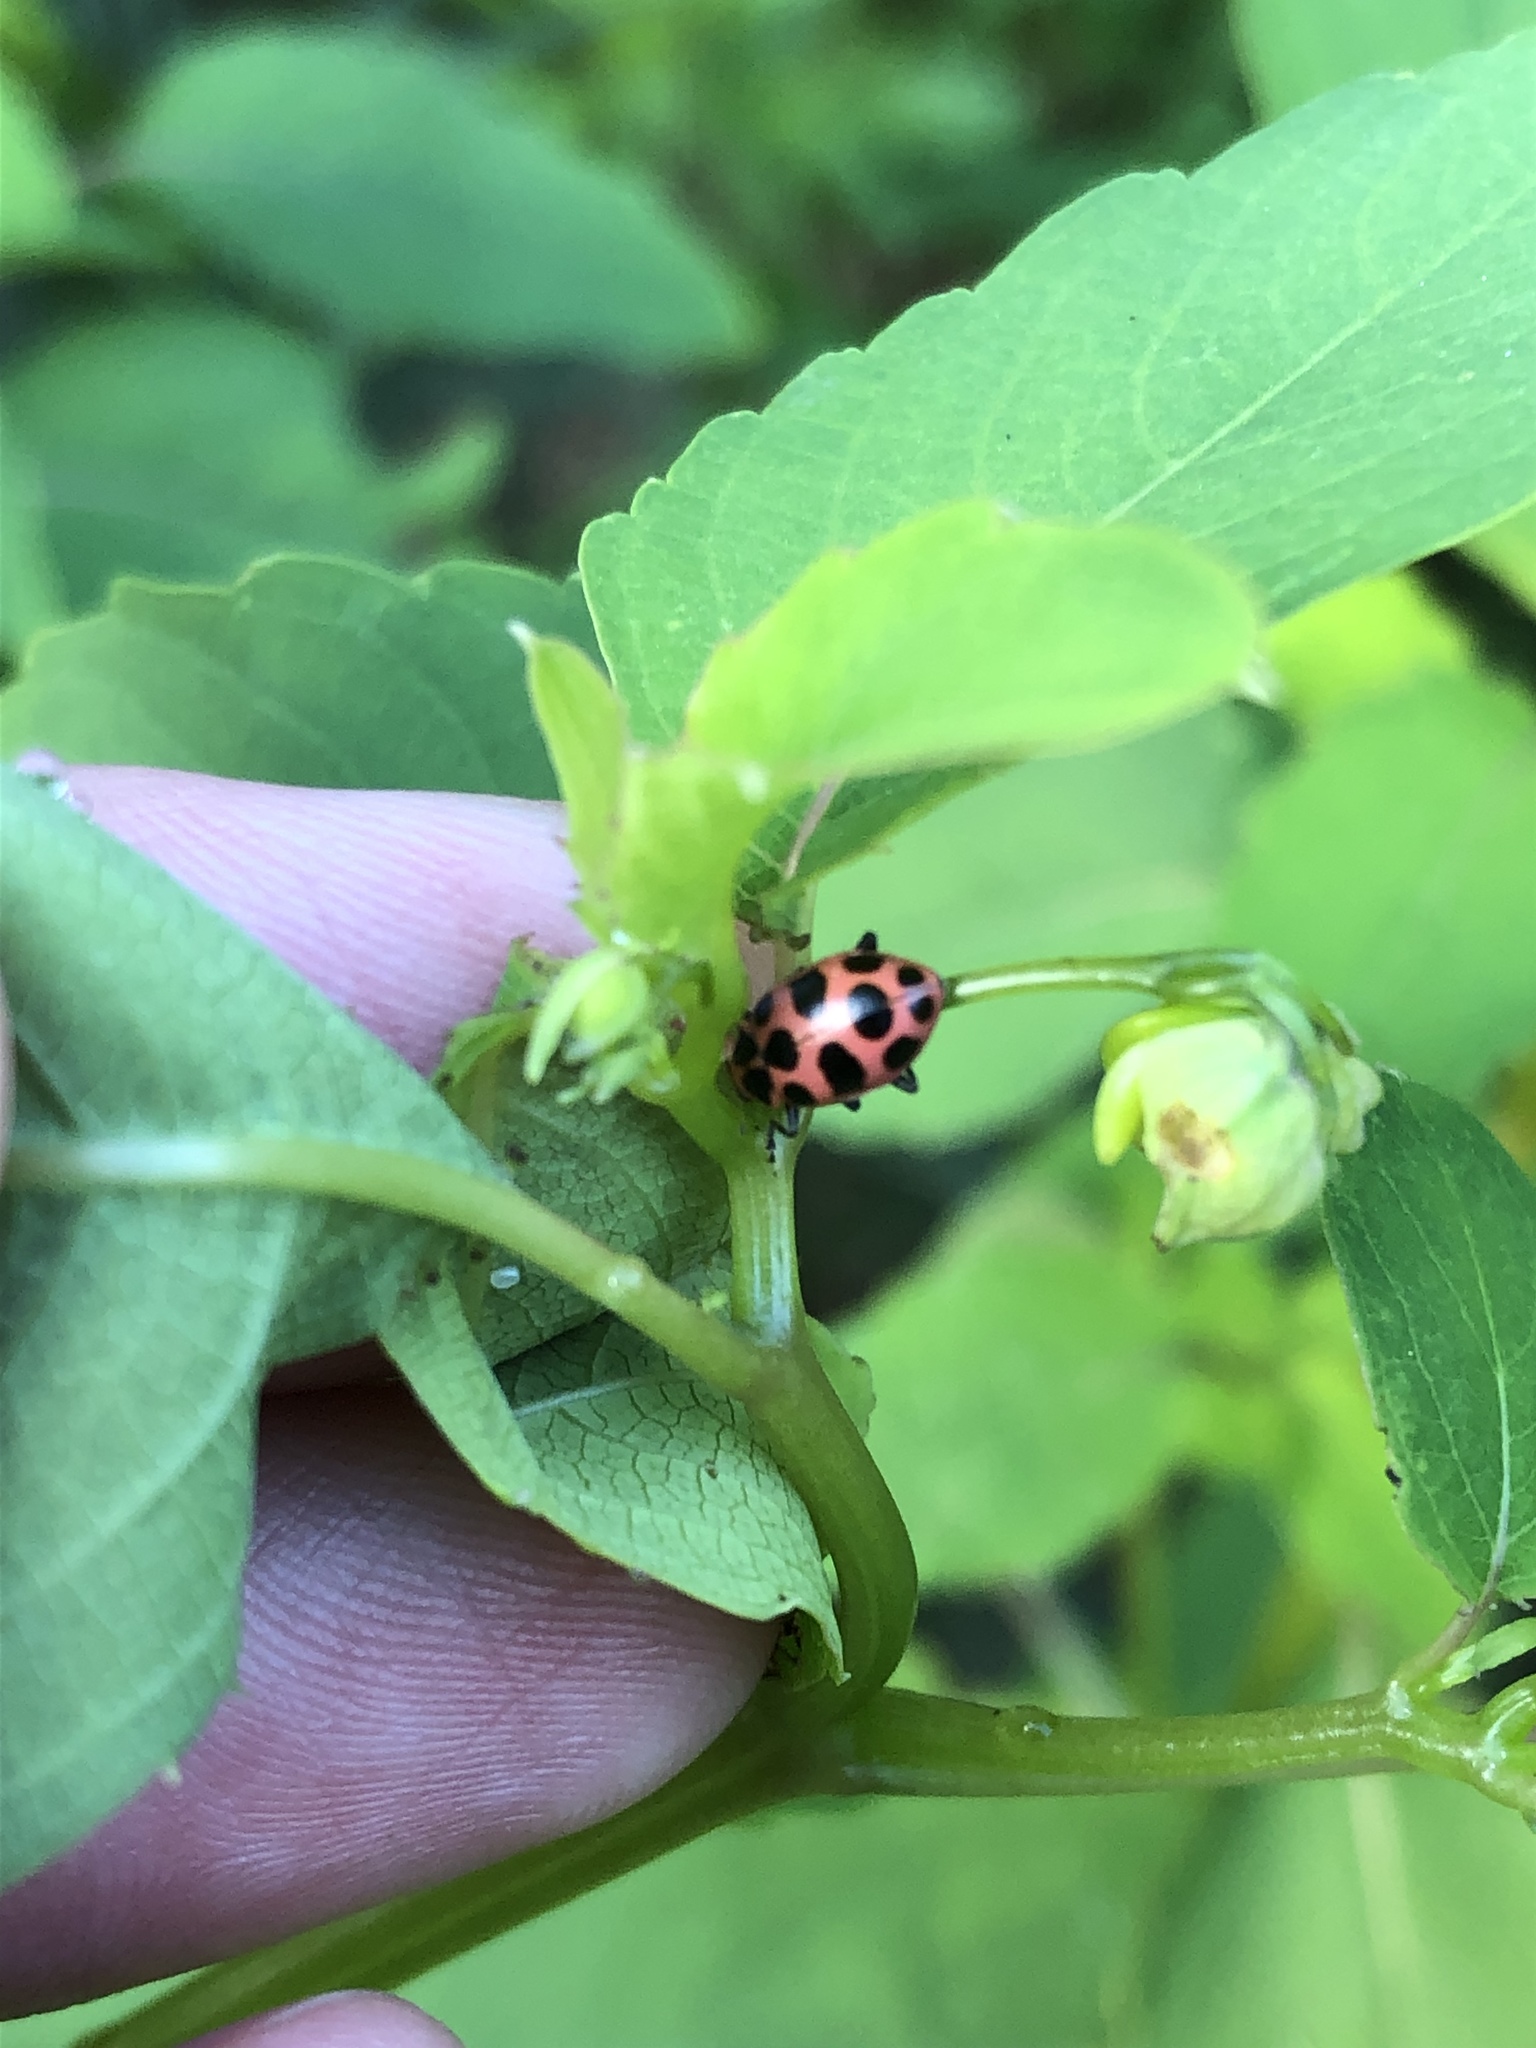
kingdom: Animalia
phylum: Arthropoda
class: Insecta
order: Coleoptera
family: Coccinellidae
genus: Coleomegilla
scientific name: Coleomegilla maculata
